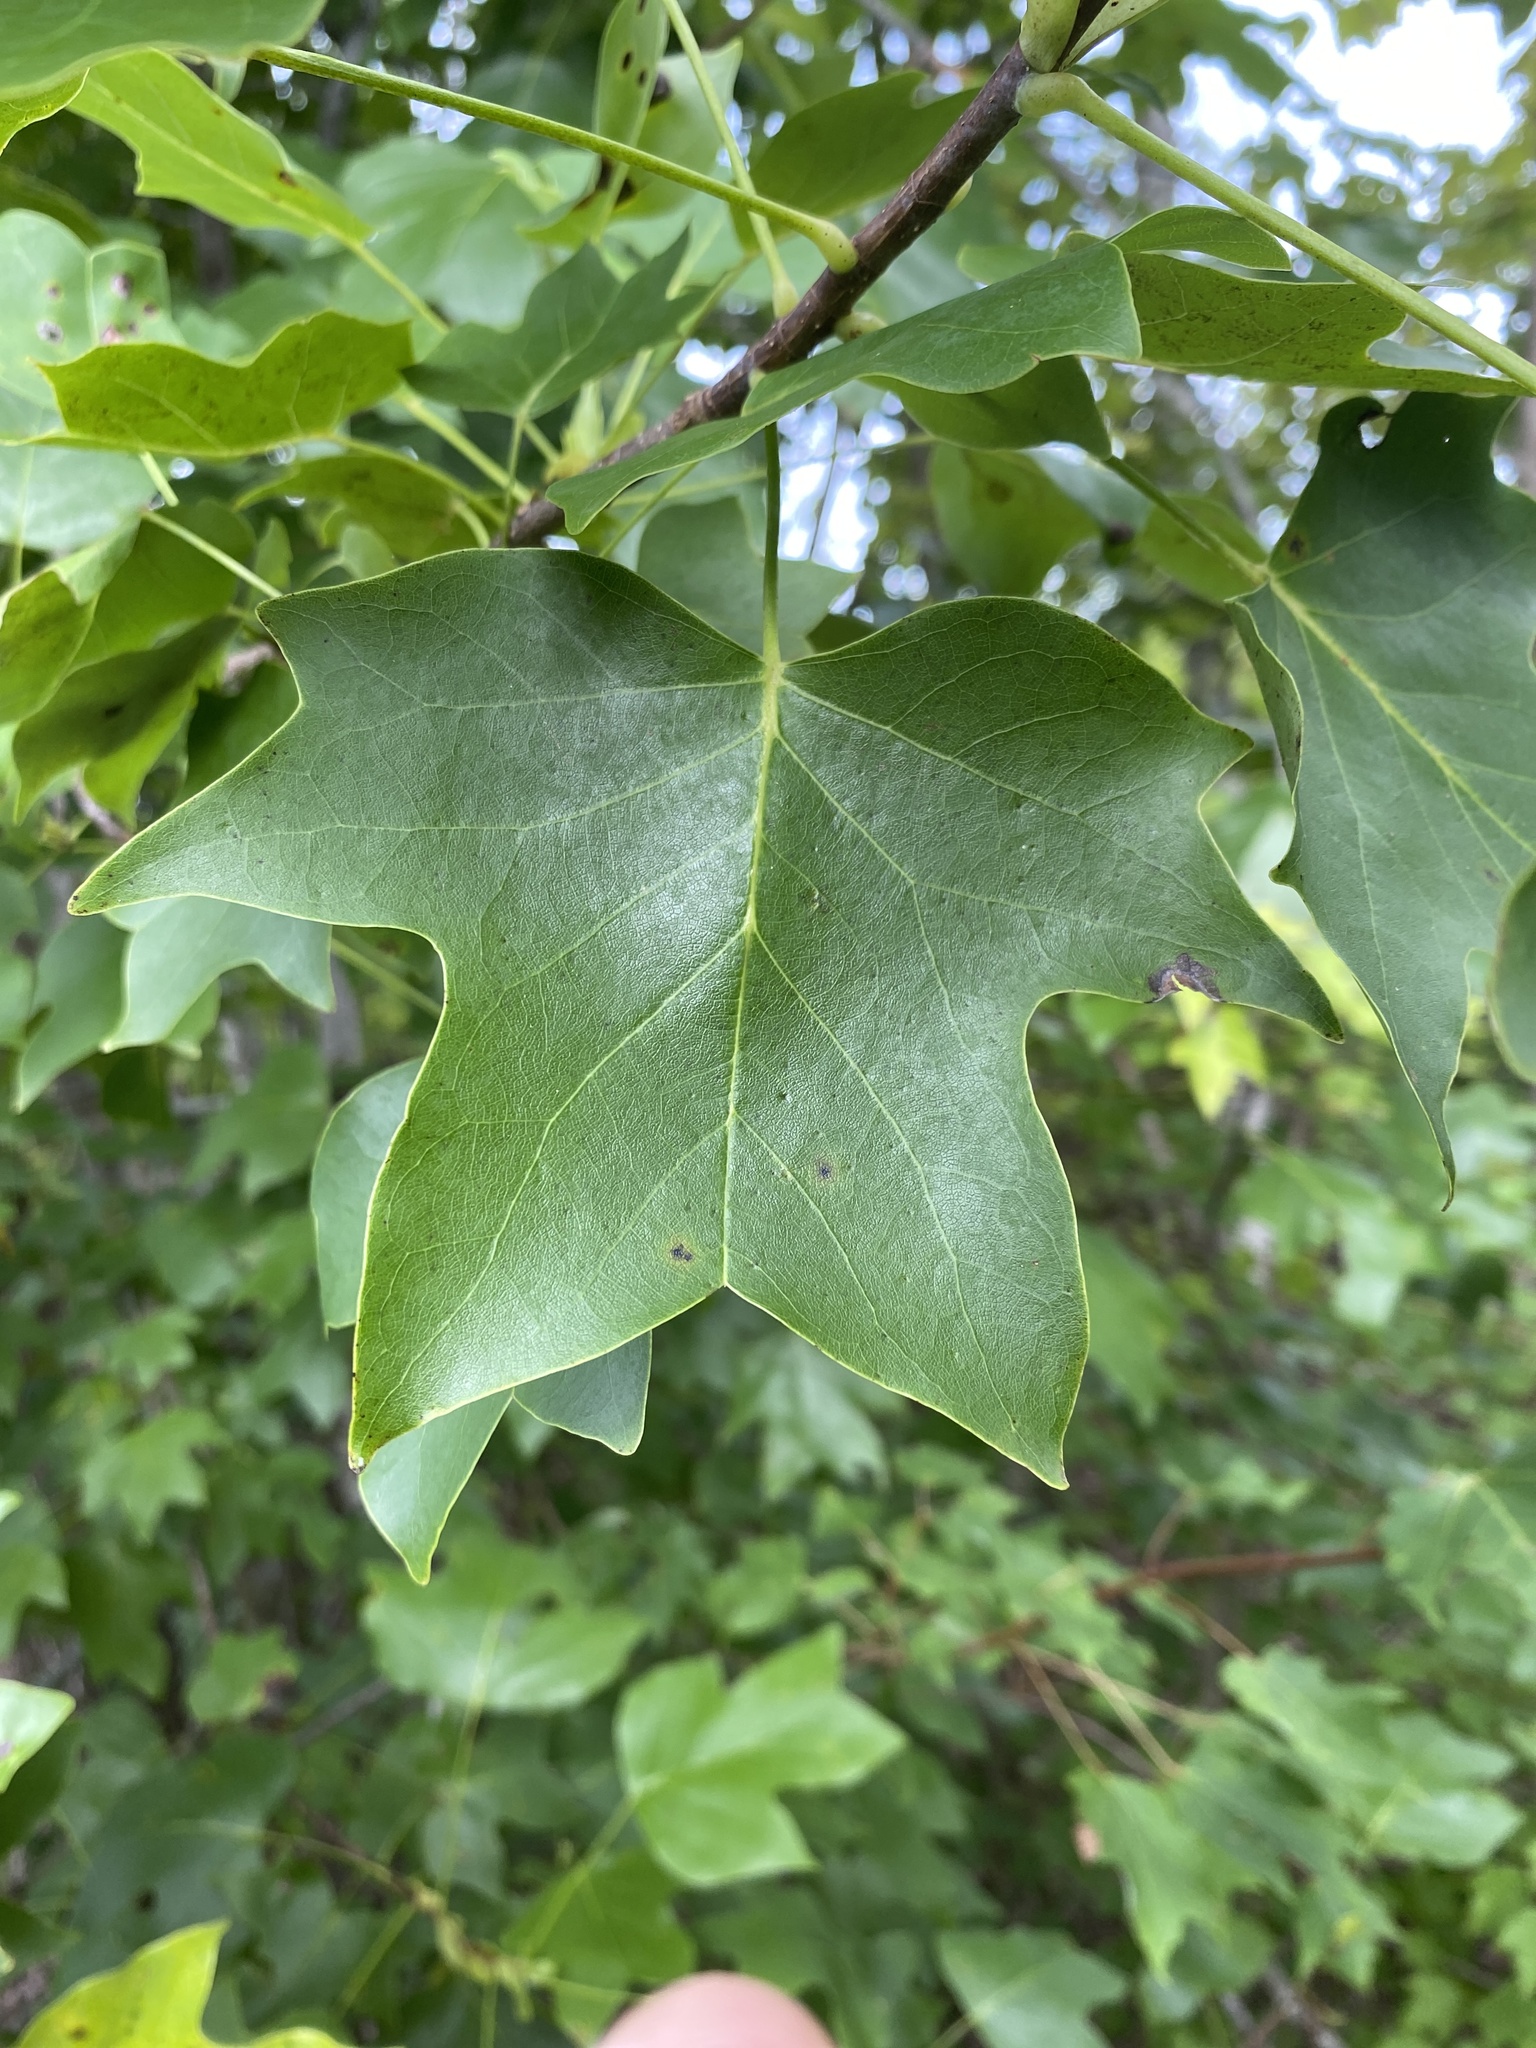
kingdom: Plantae
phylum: Tracheophyta
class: Magnoliopsida
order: Magnoliales
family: Magnoliaceae
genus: Liriodendron
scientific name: Liriodendron tulipifera
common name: Tulip tree
